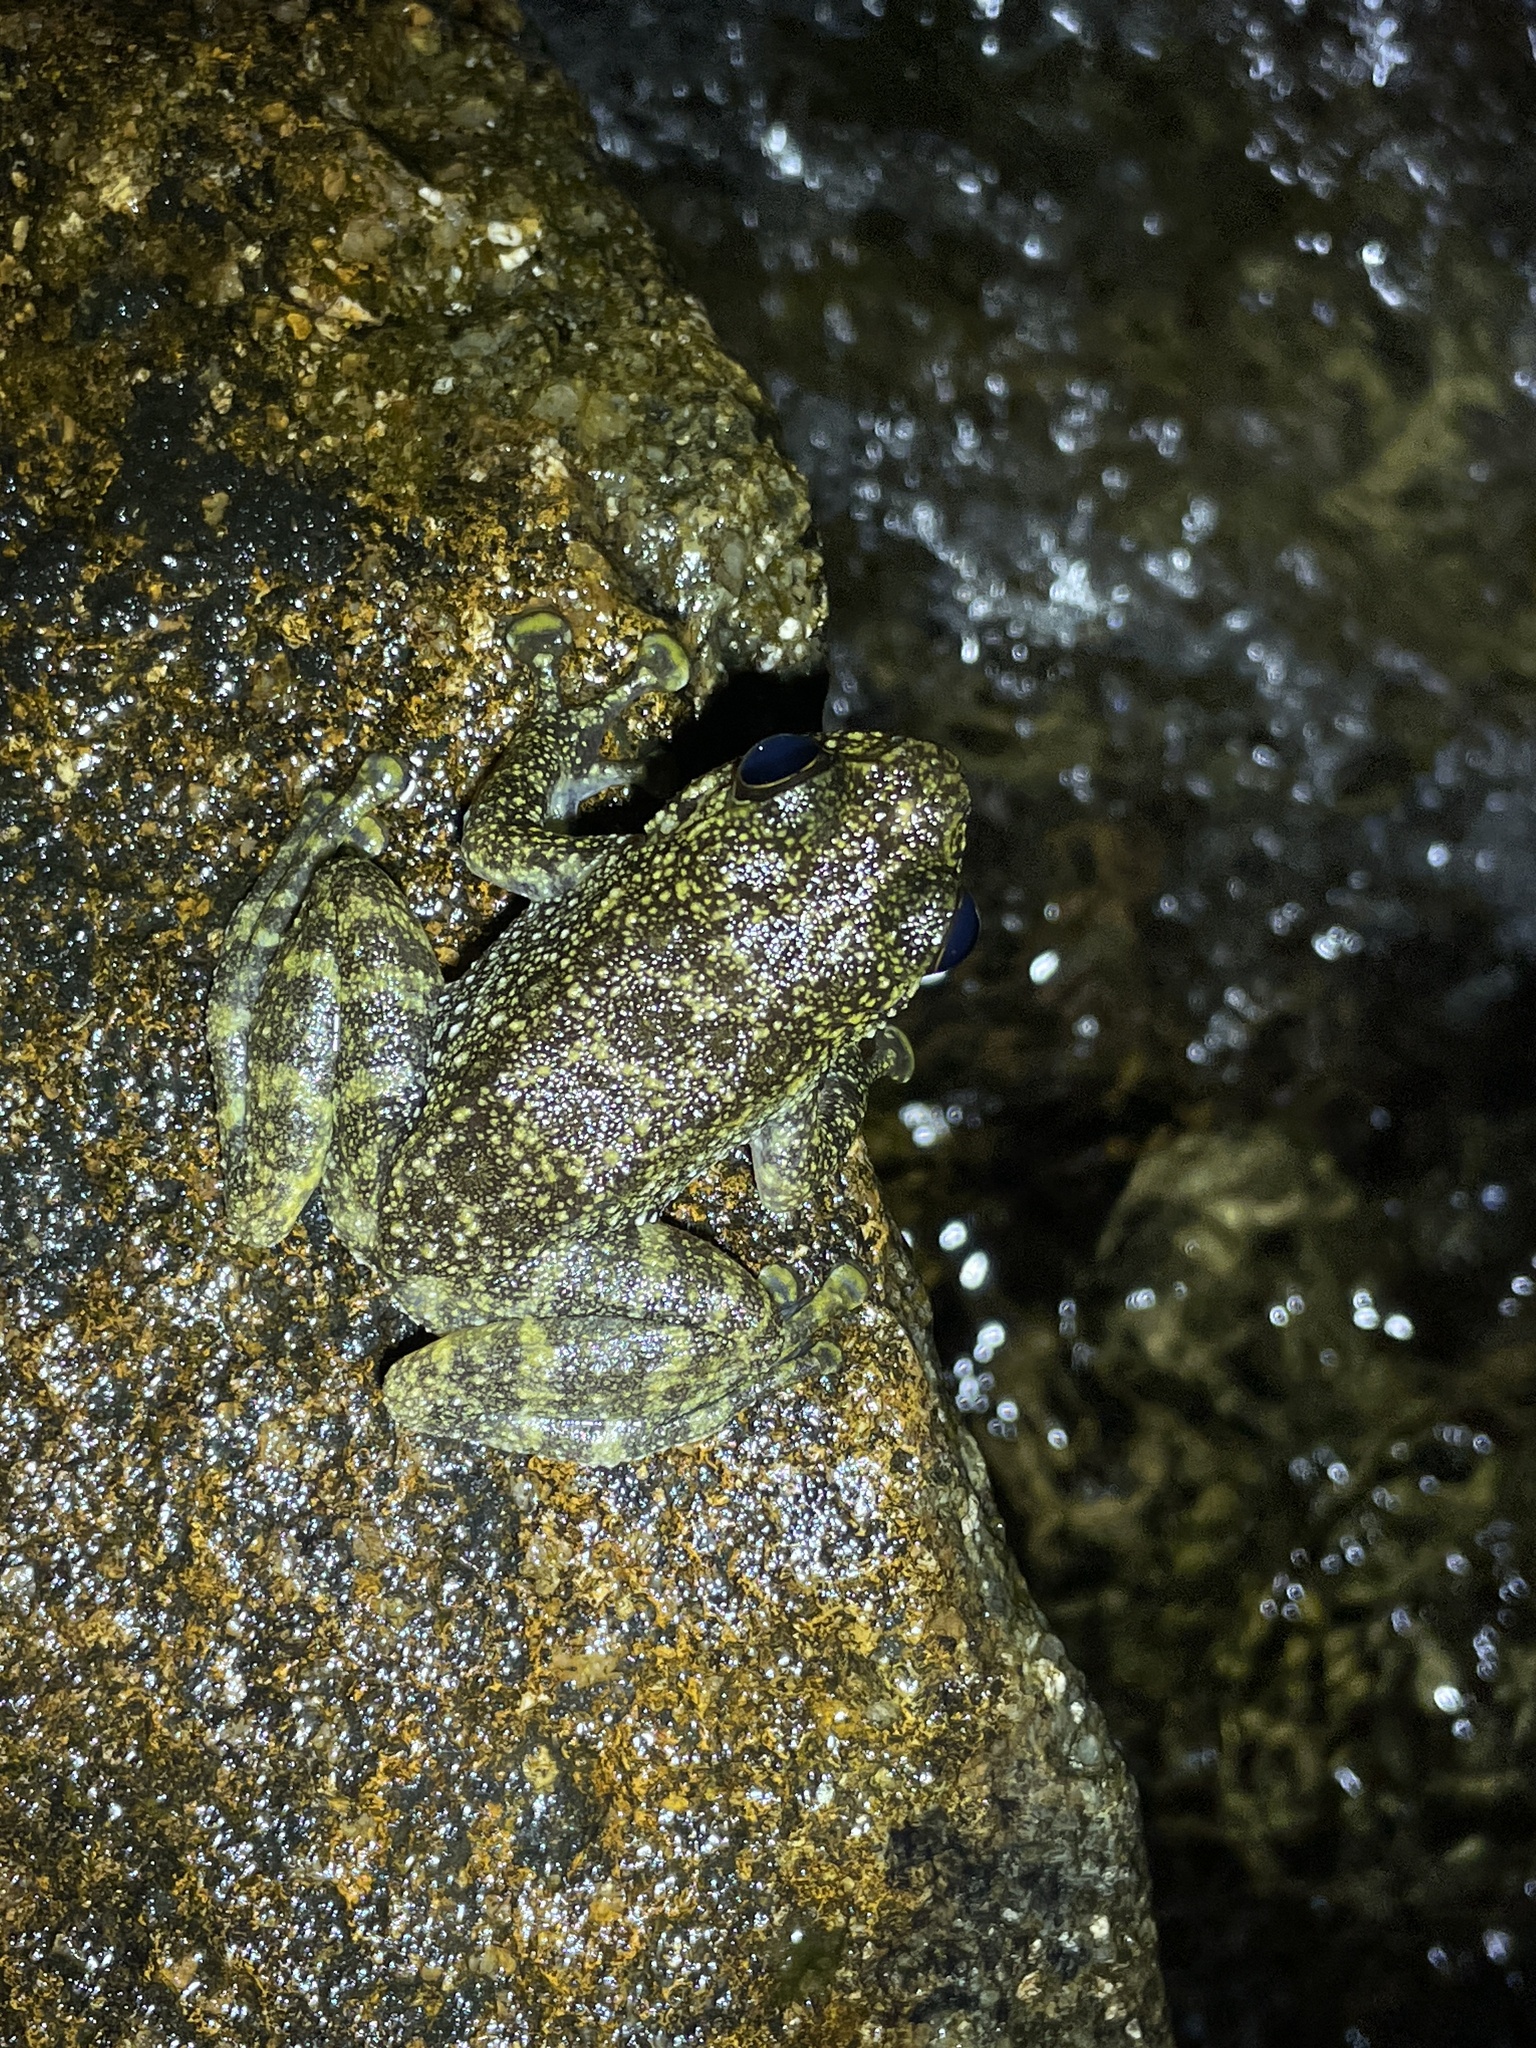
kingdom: Animalia
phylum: Chordata
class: Amphibia
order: Anura
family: Ranidae
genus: Amolops
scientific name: Amolops hongkongensis
